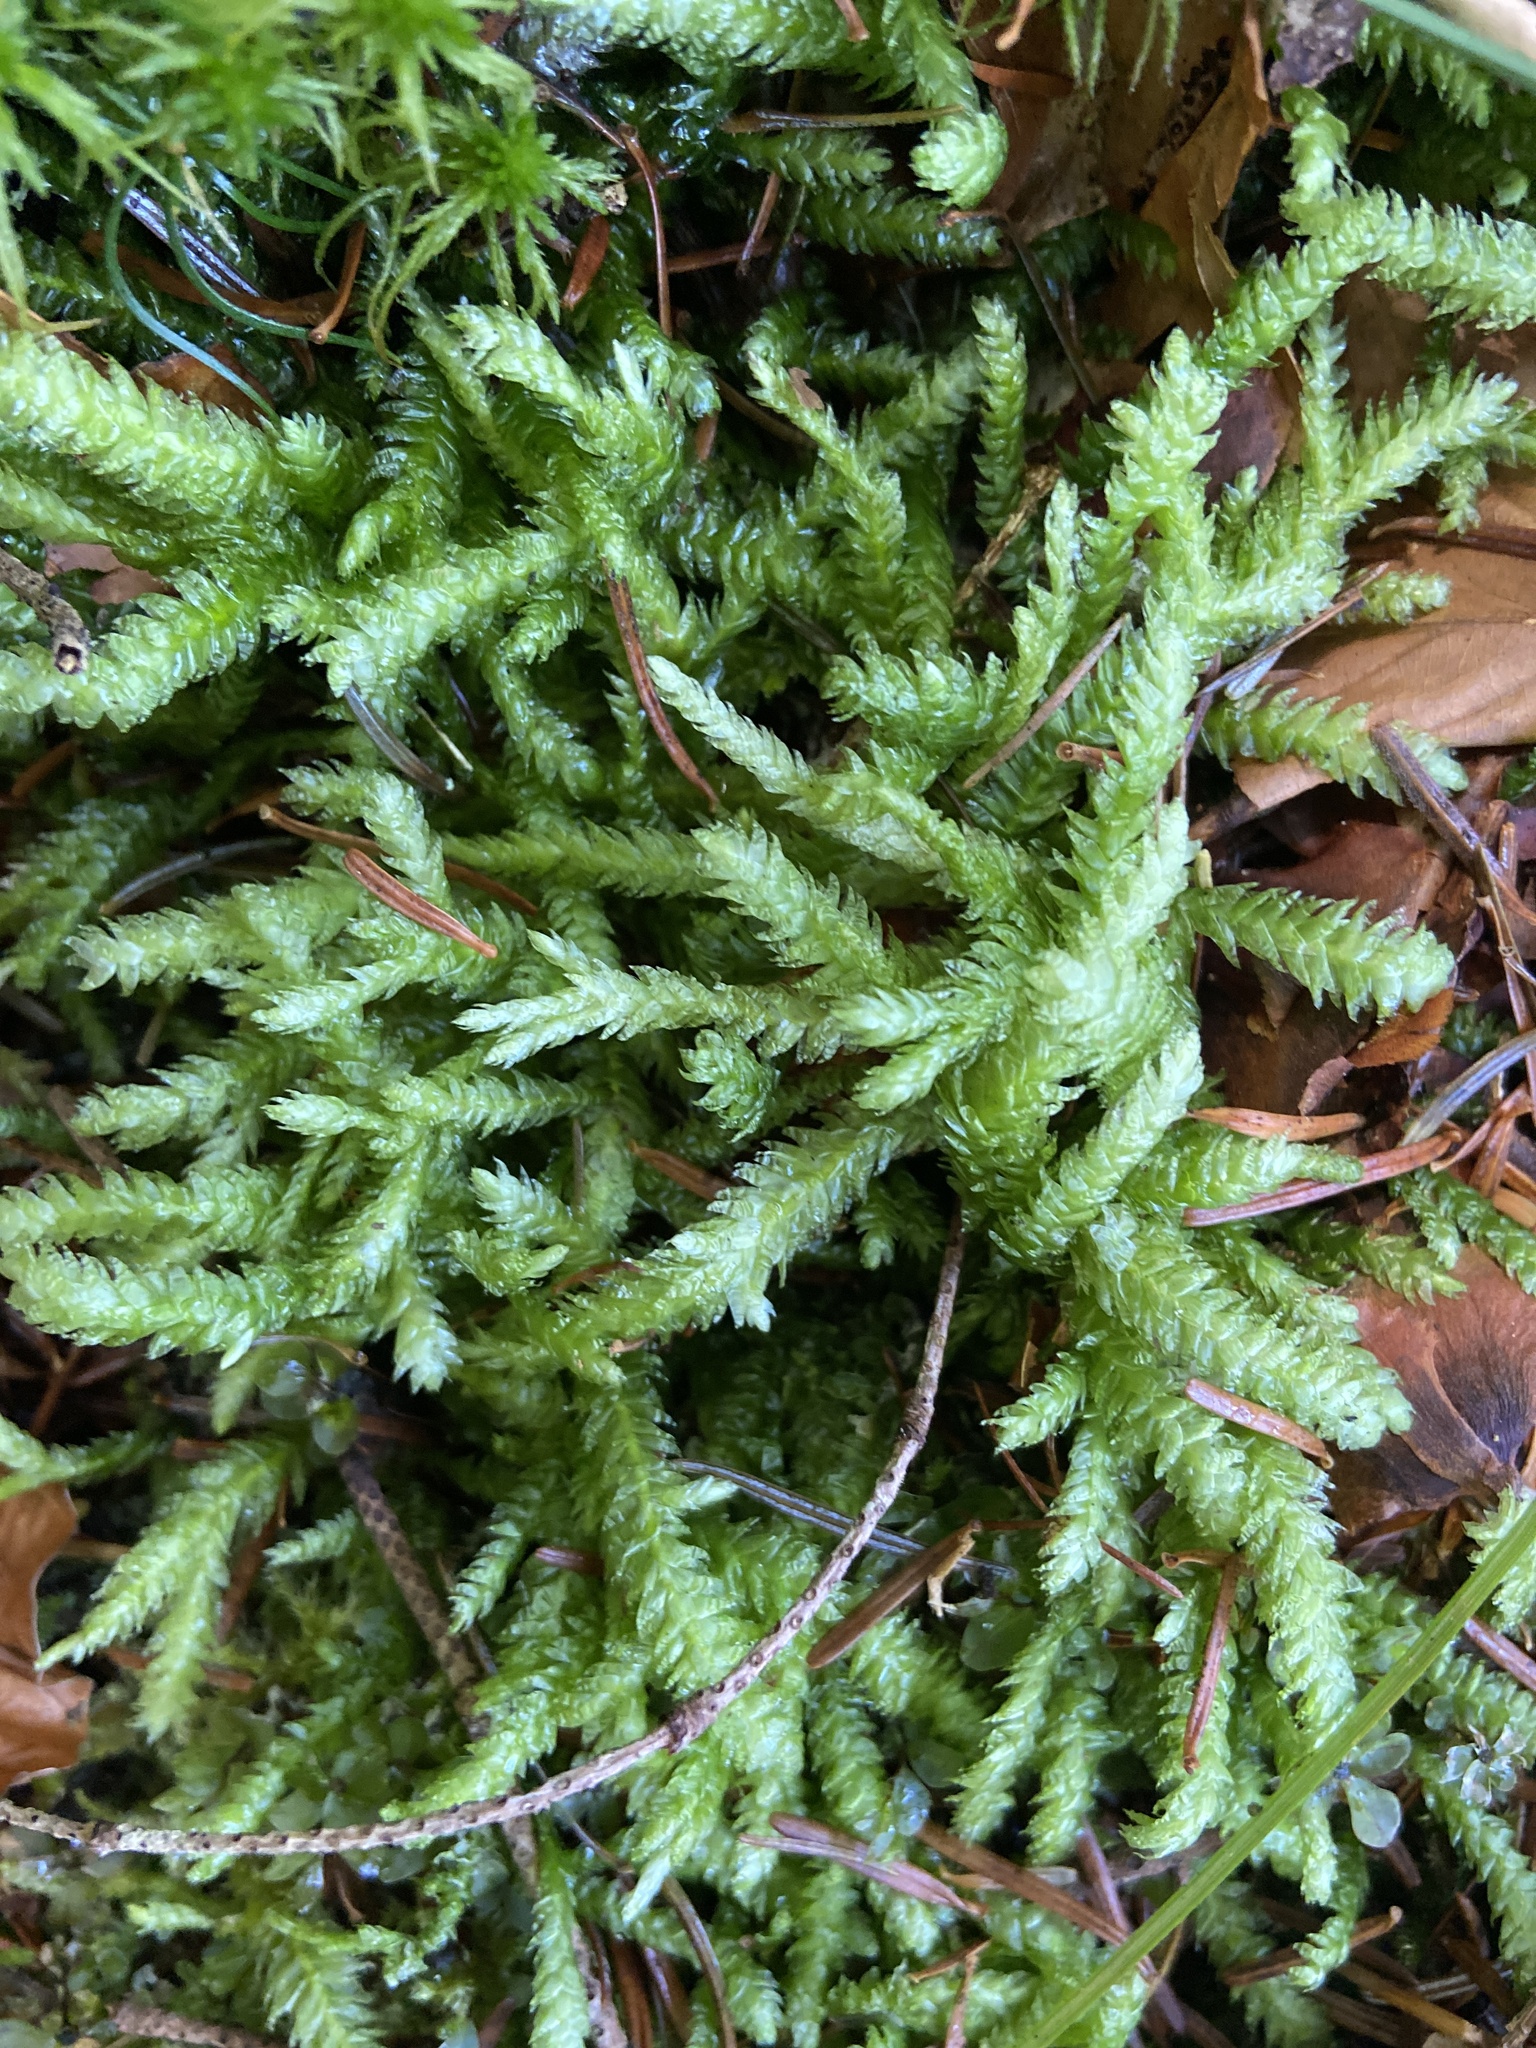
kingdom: Plantae
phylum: Bryophyta
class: Bryopsida
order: Hypnales
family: Plagiotheciaceae
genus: Plagiothecium
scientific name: Plagiothecium undulatum
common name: Waved silk-moss
